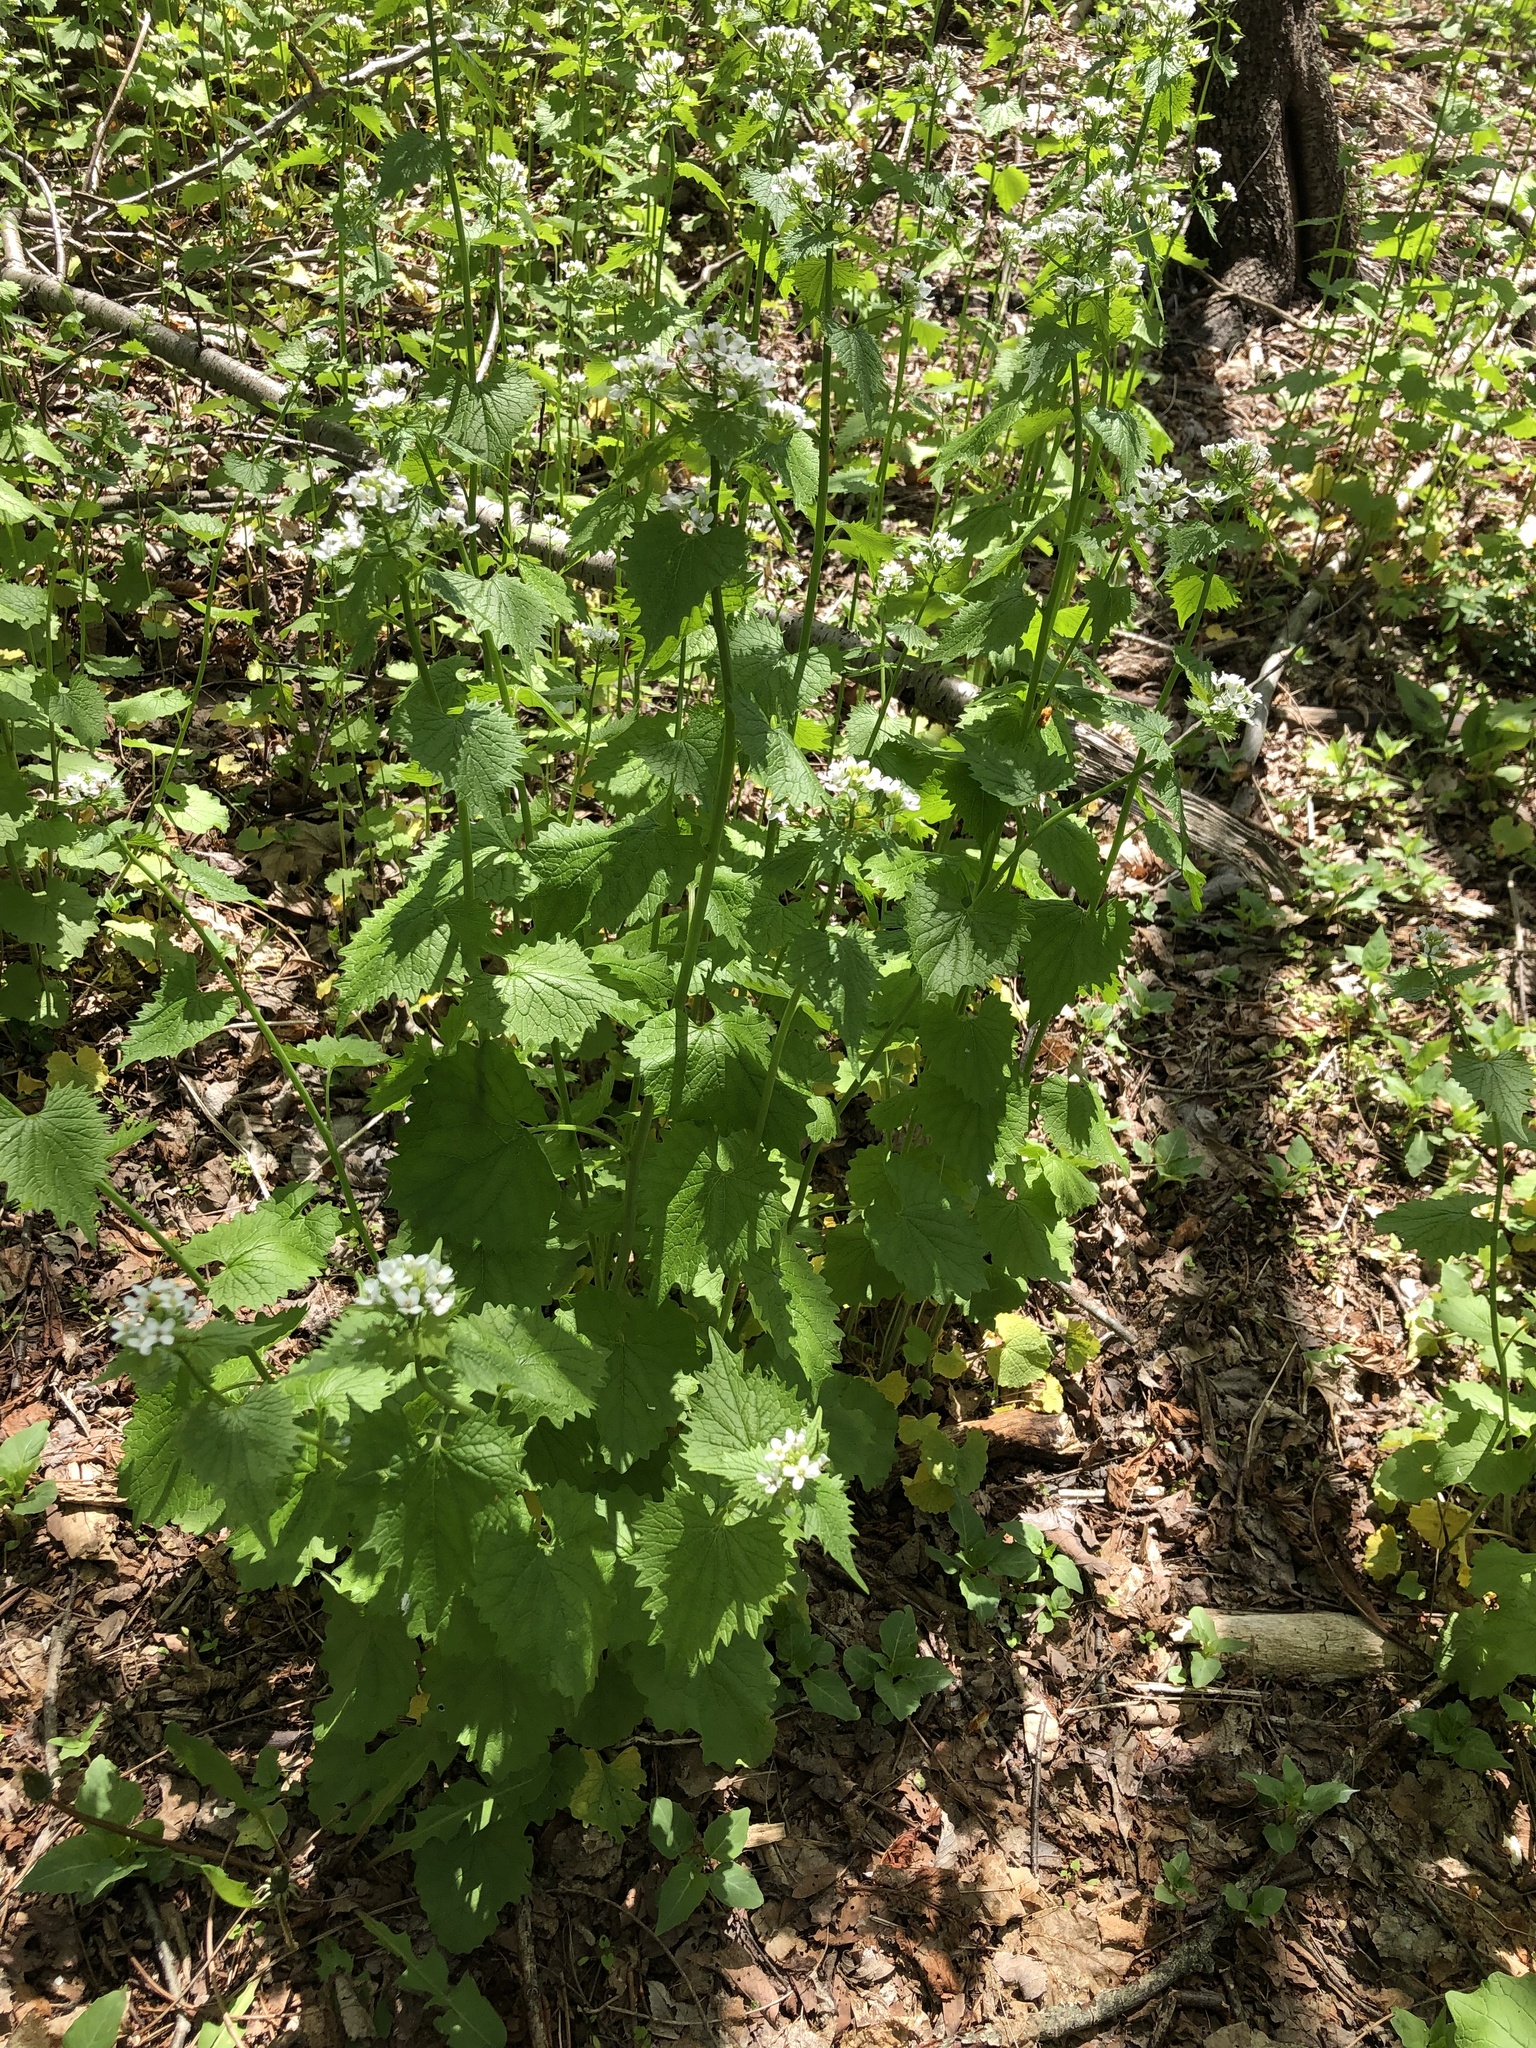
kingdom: Plantae
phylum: Tracheophyta
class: Magnoliopsida
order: Brassicales
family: Brassicaceae
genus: Alliaria
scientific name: Alliaria petiolata
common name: Garlic mustard
